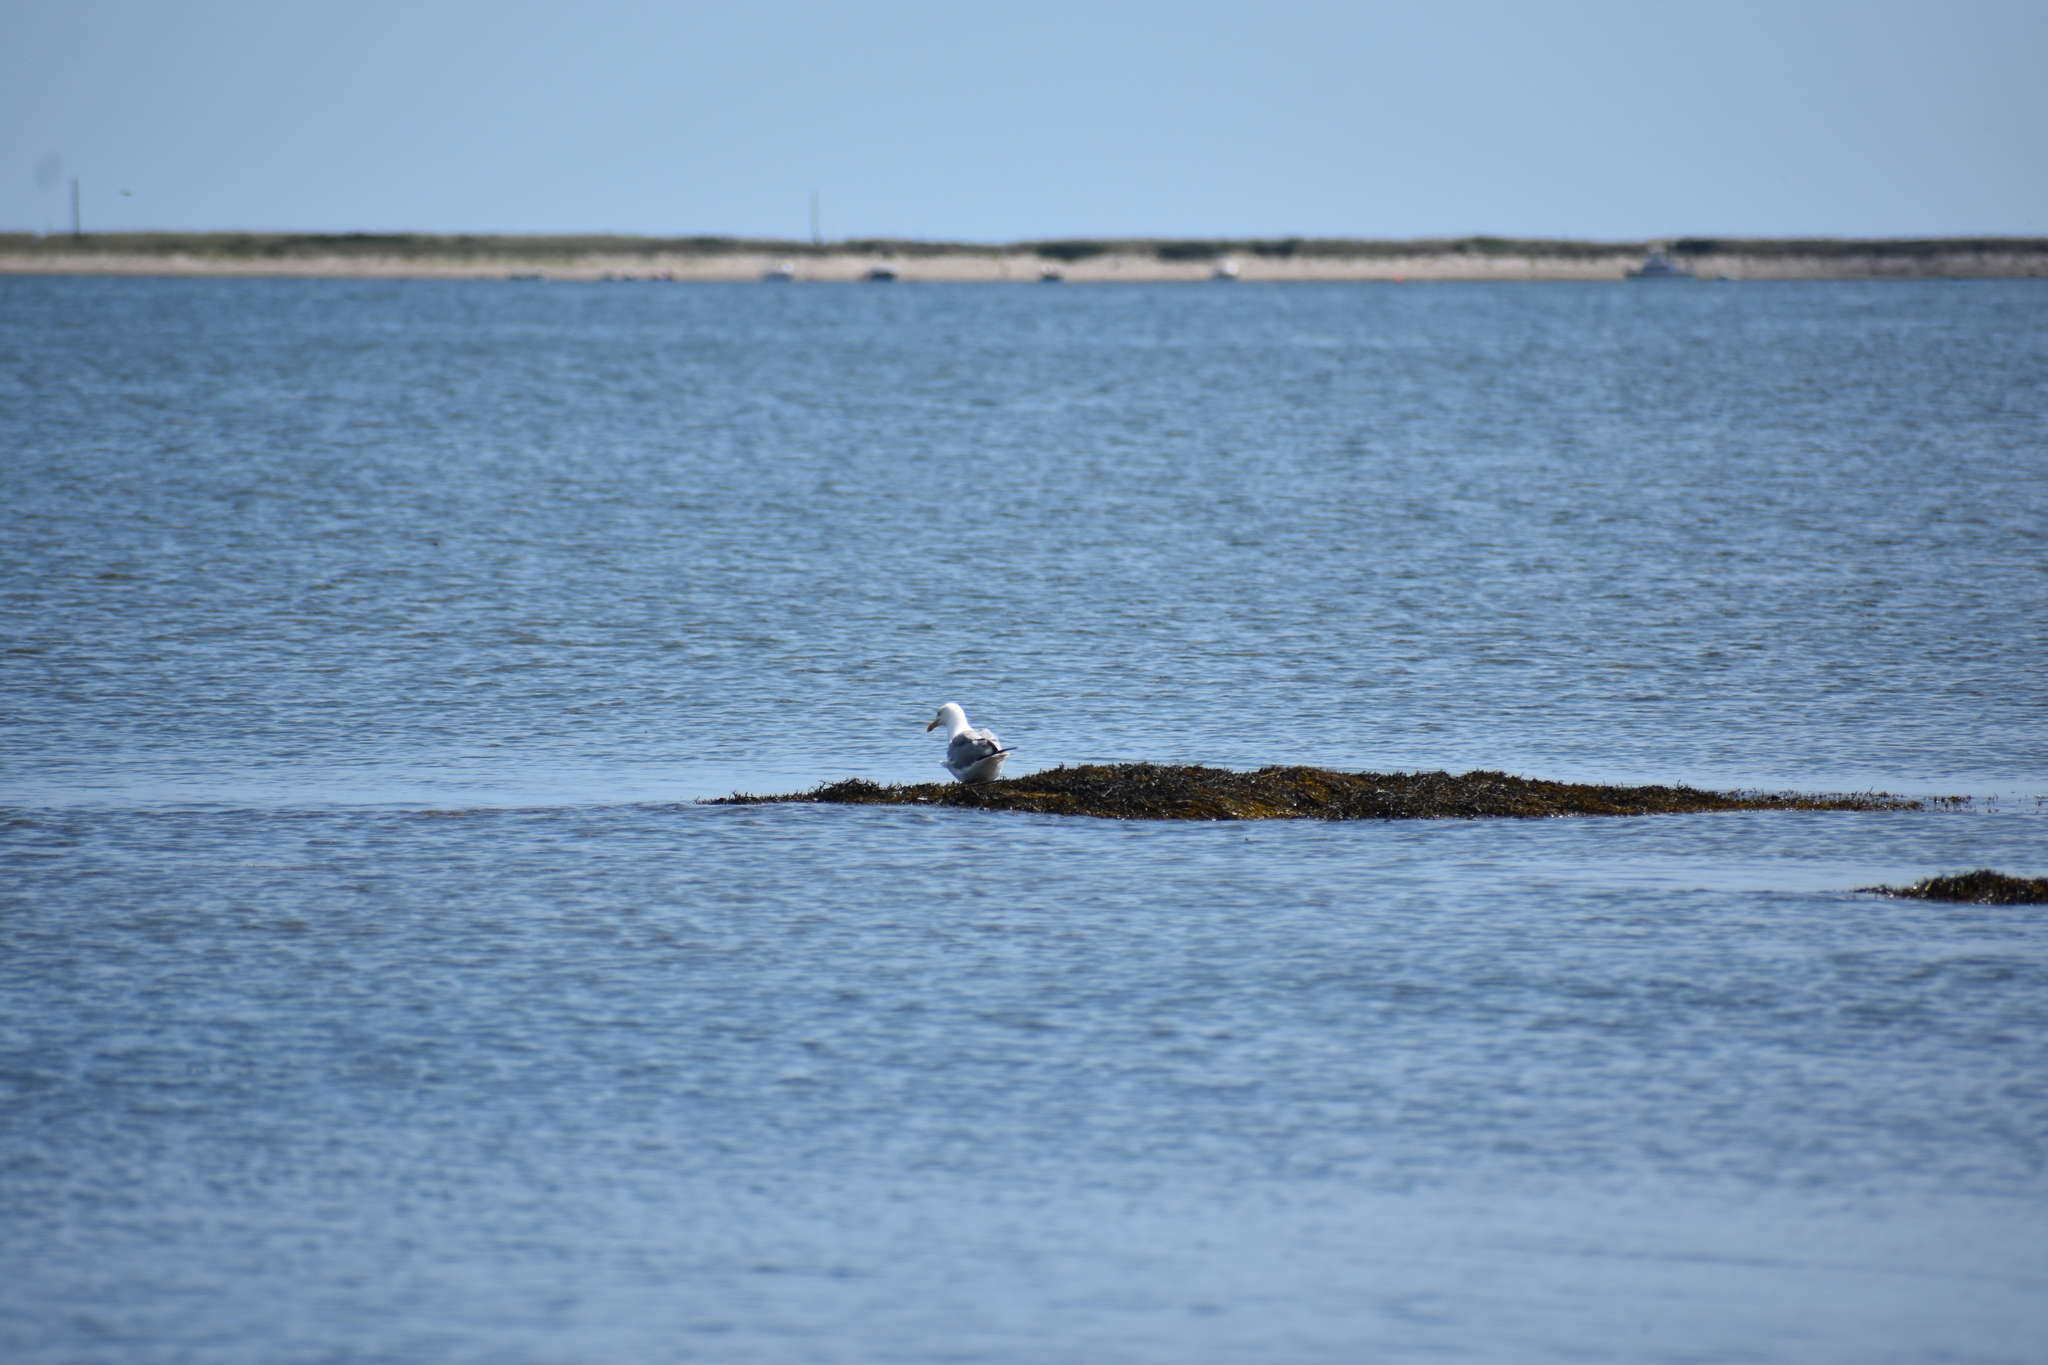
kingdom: Animalia
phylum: Chordata
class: Aves
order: Charadriiformes
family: Laridae
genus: Larus
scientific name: Larus argentatus
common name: Herring gull
